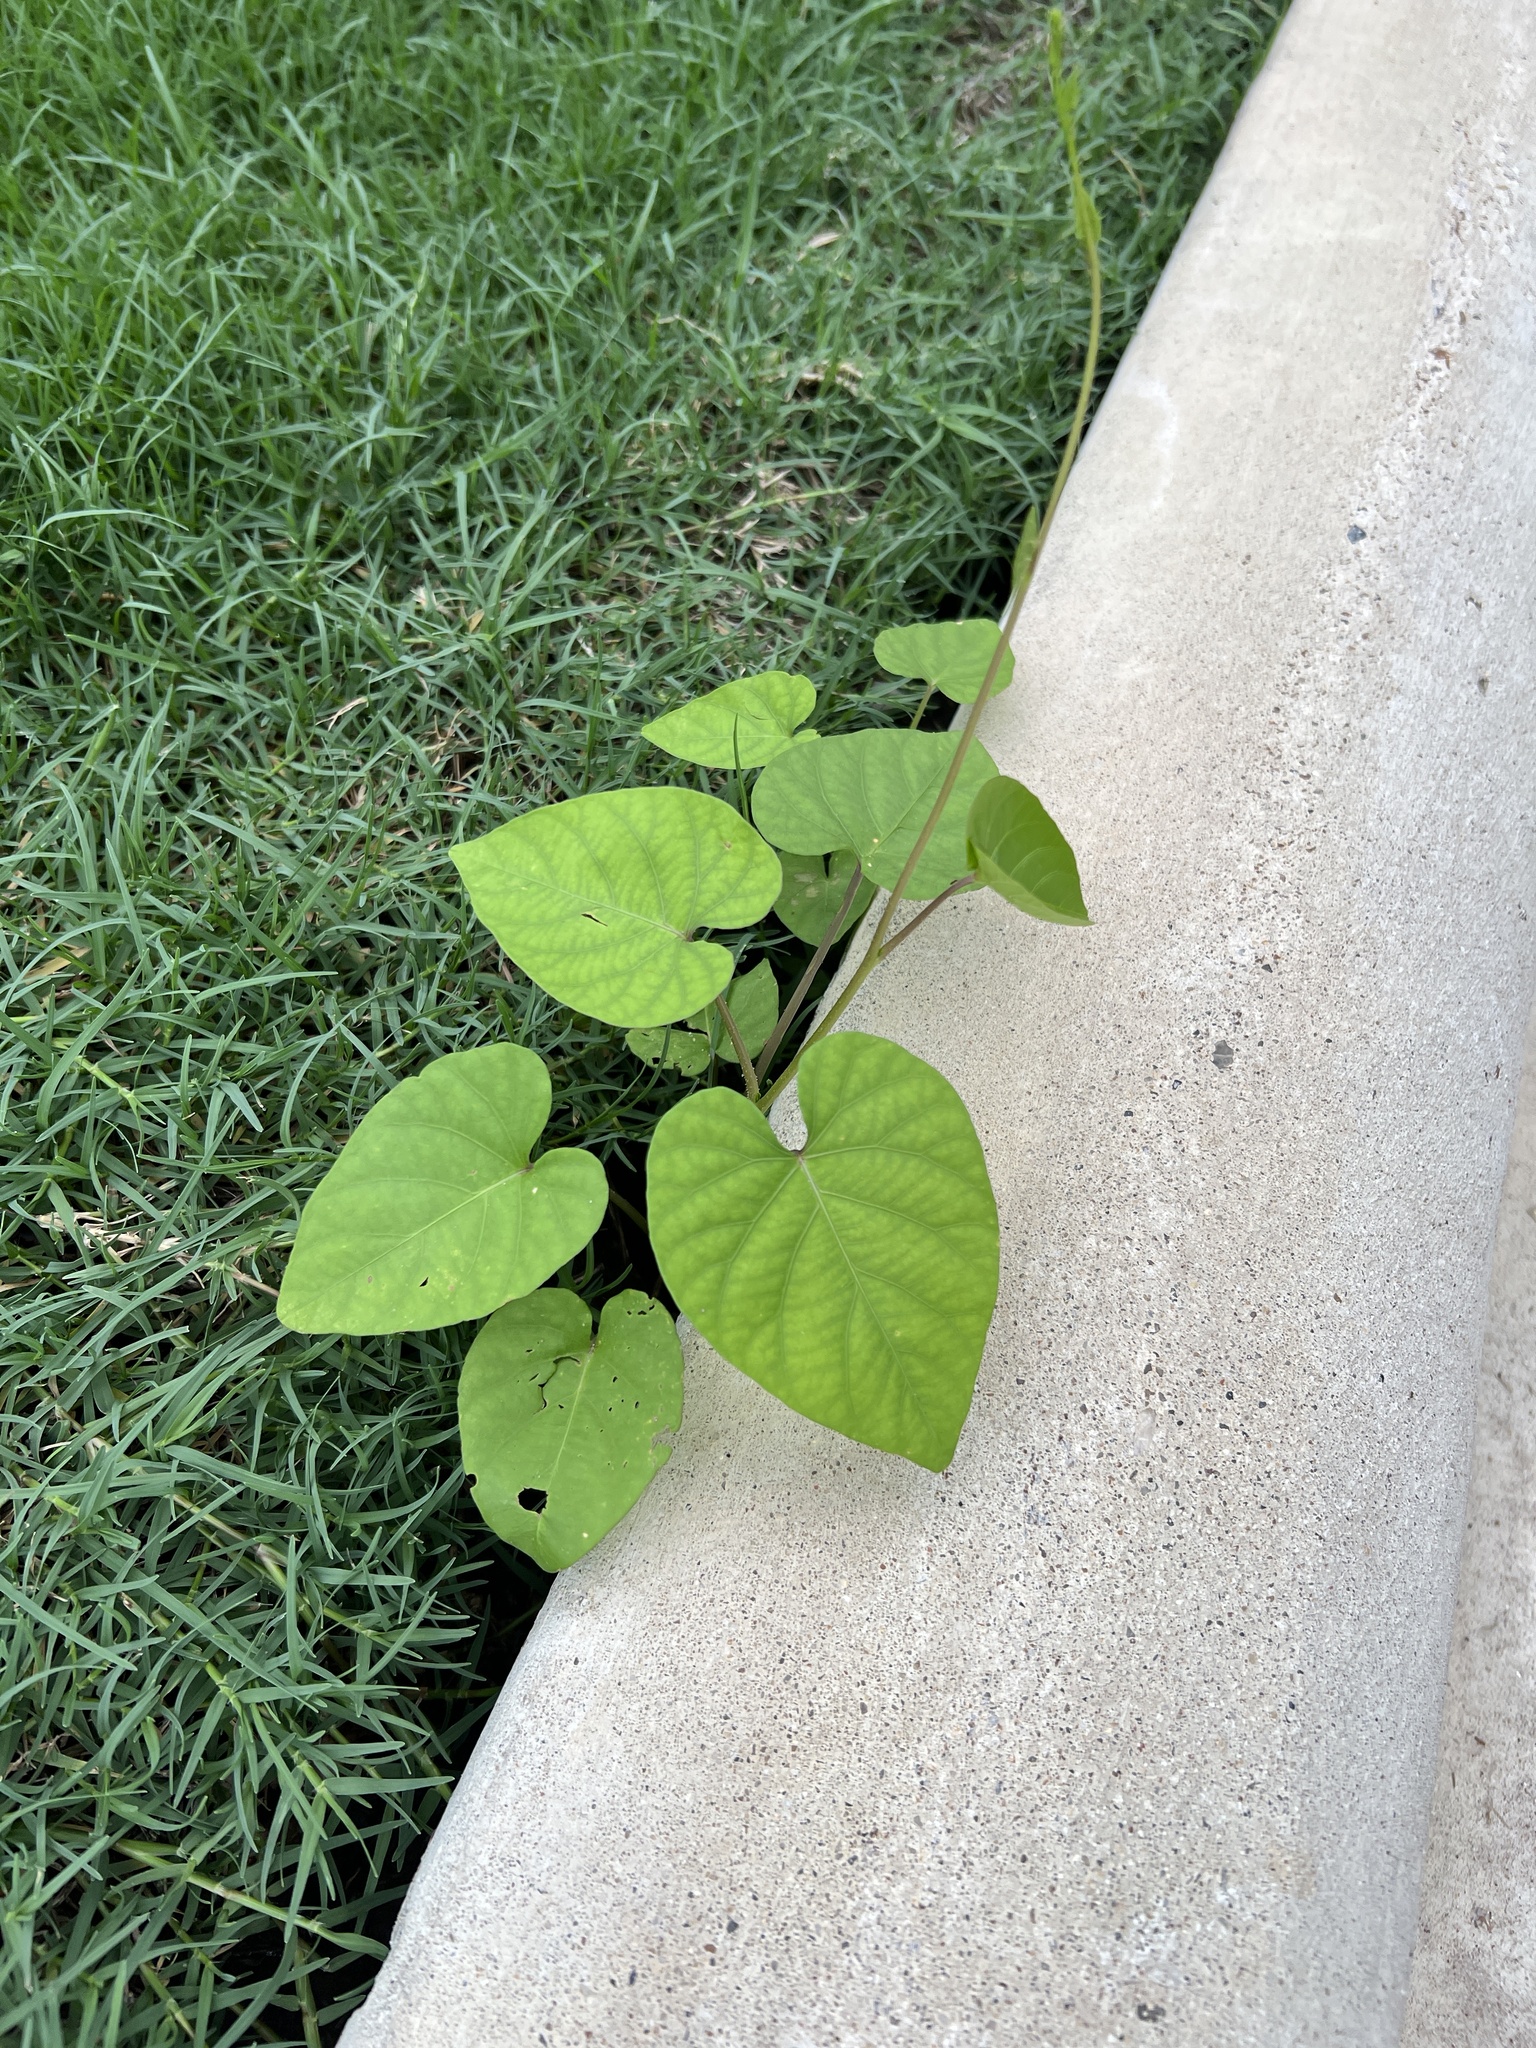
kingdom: Plantae
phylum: Tracheophyta
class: Magnoliopsida
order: Solanales
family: Convolvulaceae
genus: Ipomoea
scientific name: Ipomoea amnicola
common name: Redcenter morning-glory
